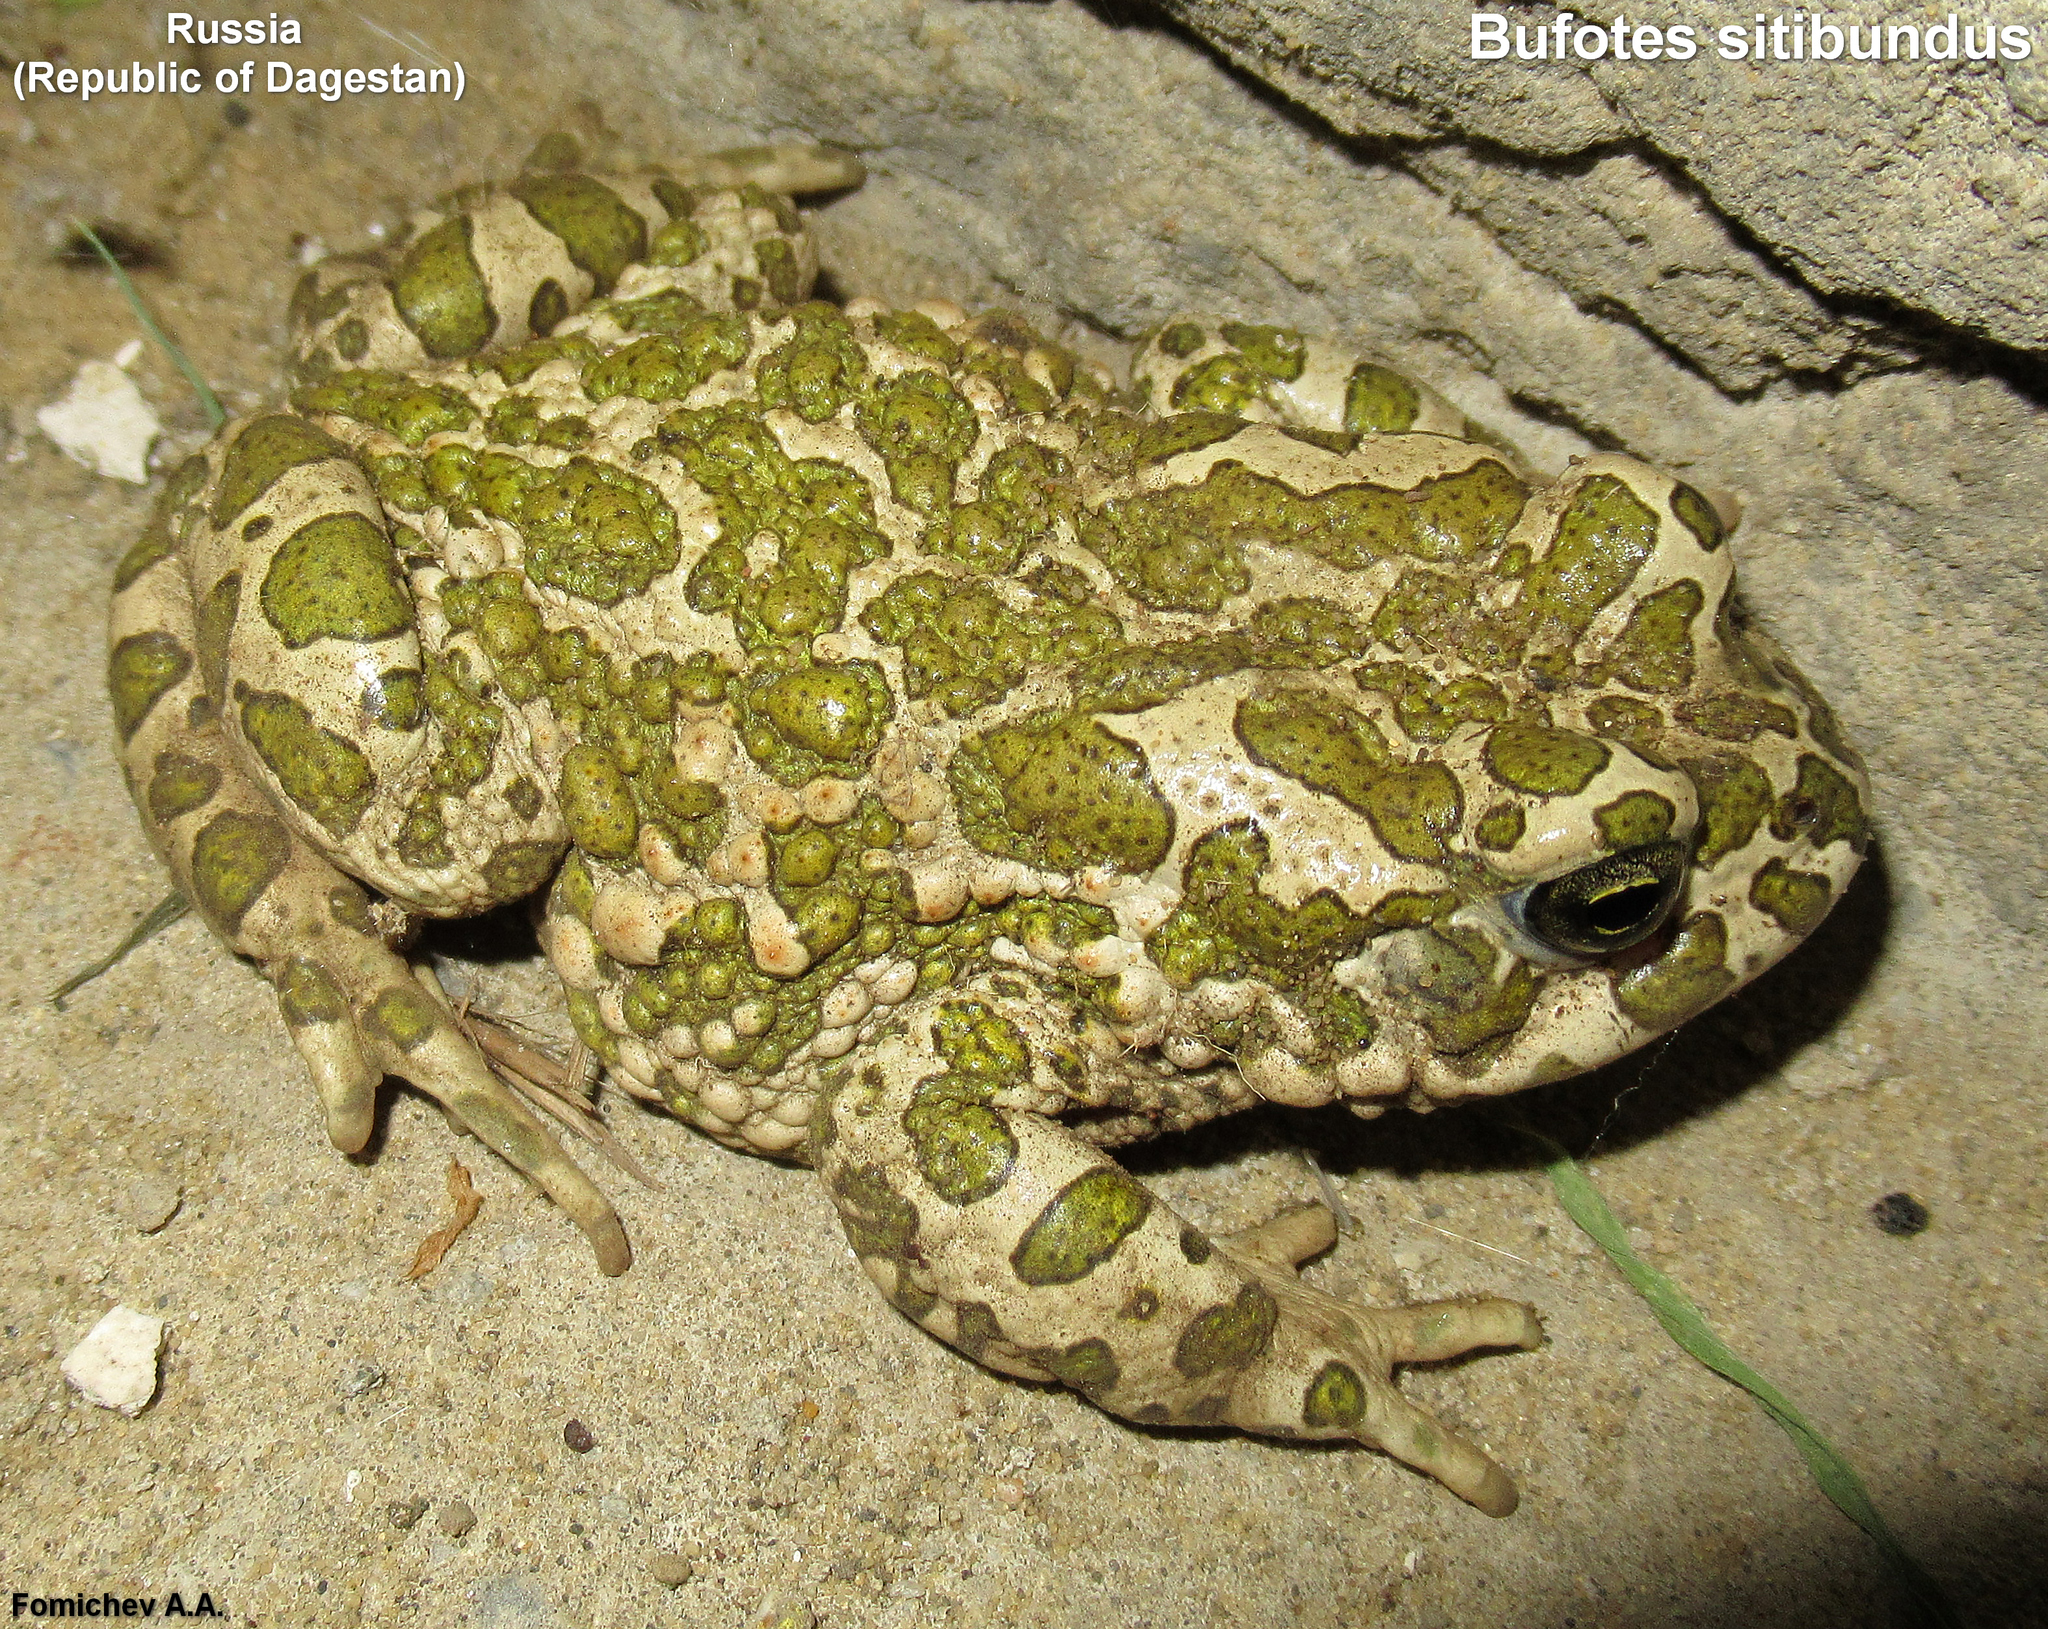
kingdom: Animalia
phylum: Chordata
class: Amphibia
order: Anura
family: Bufonidae
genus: Bufotes
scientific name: Bufotes viridis
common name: European green toad
